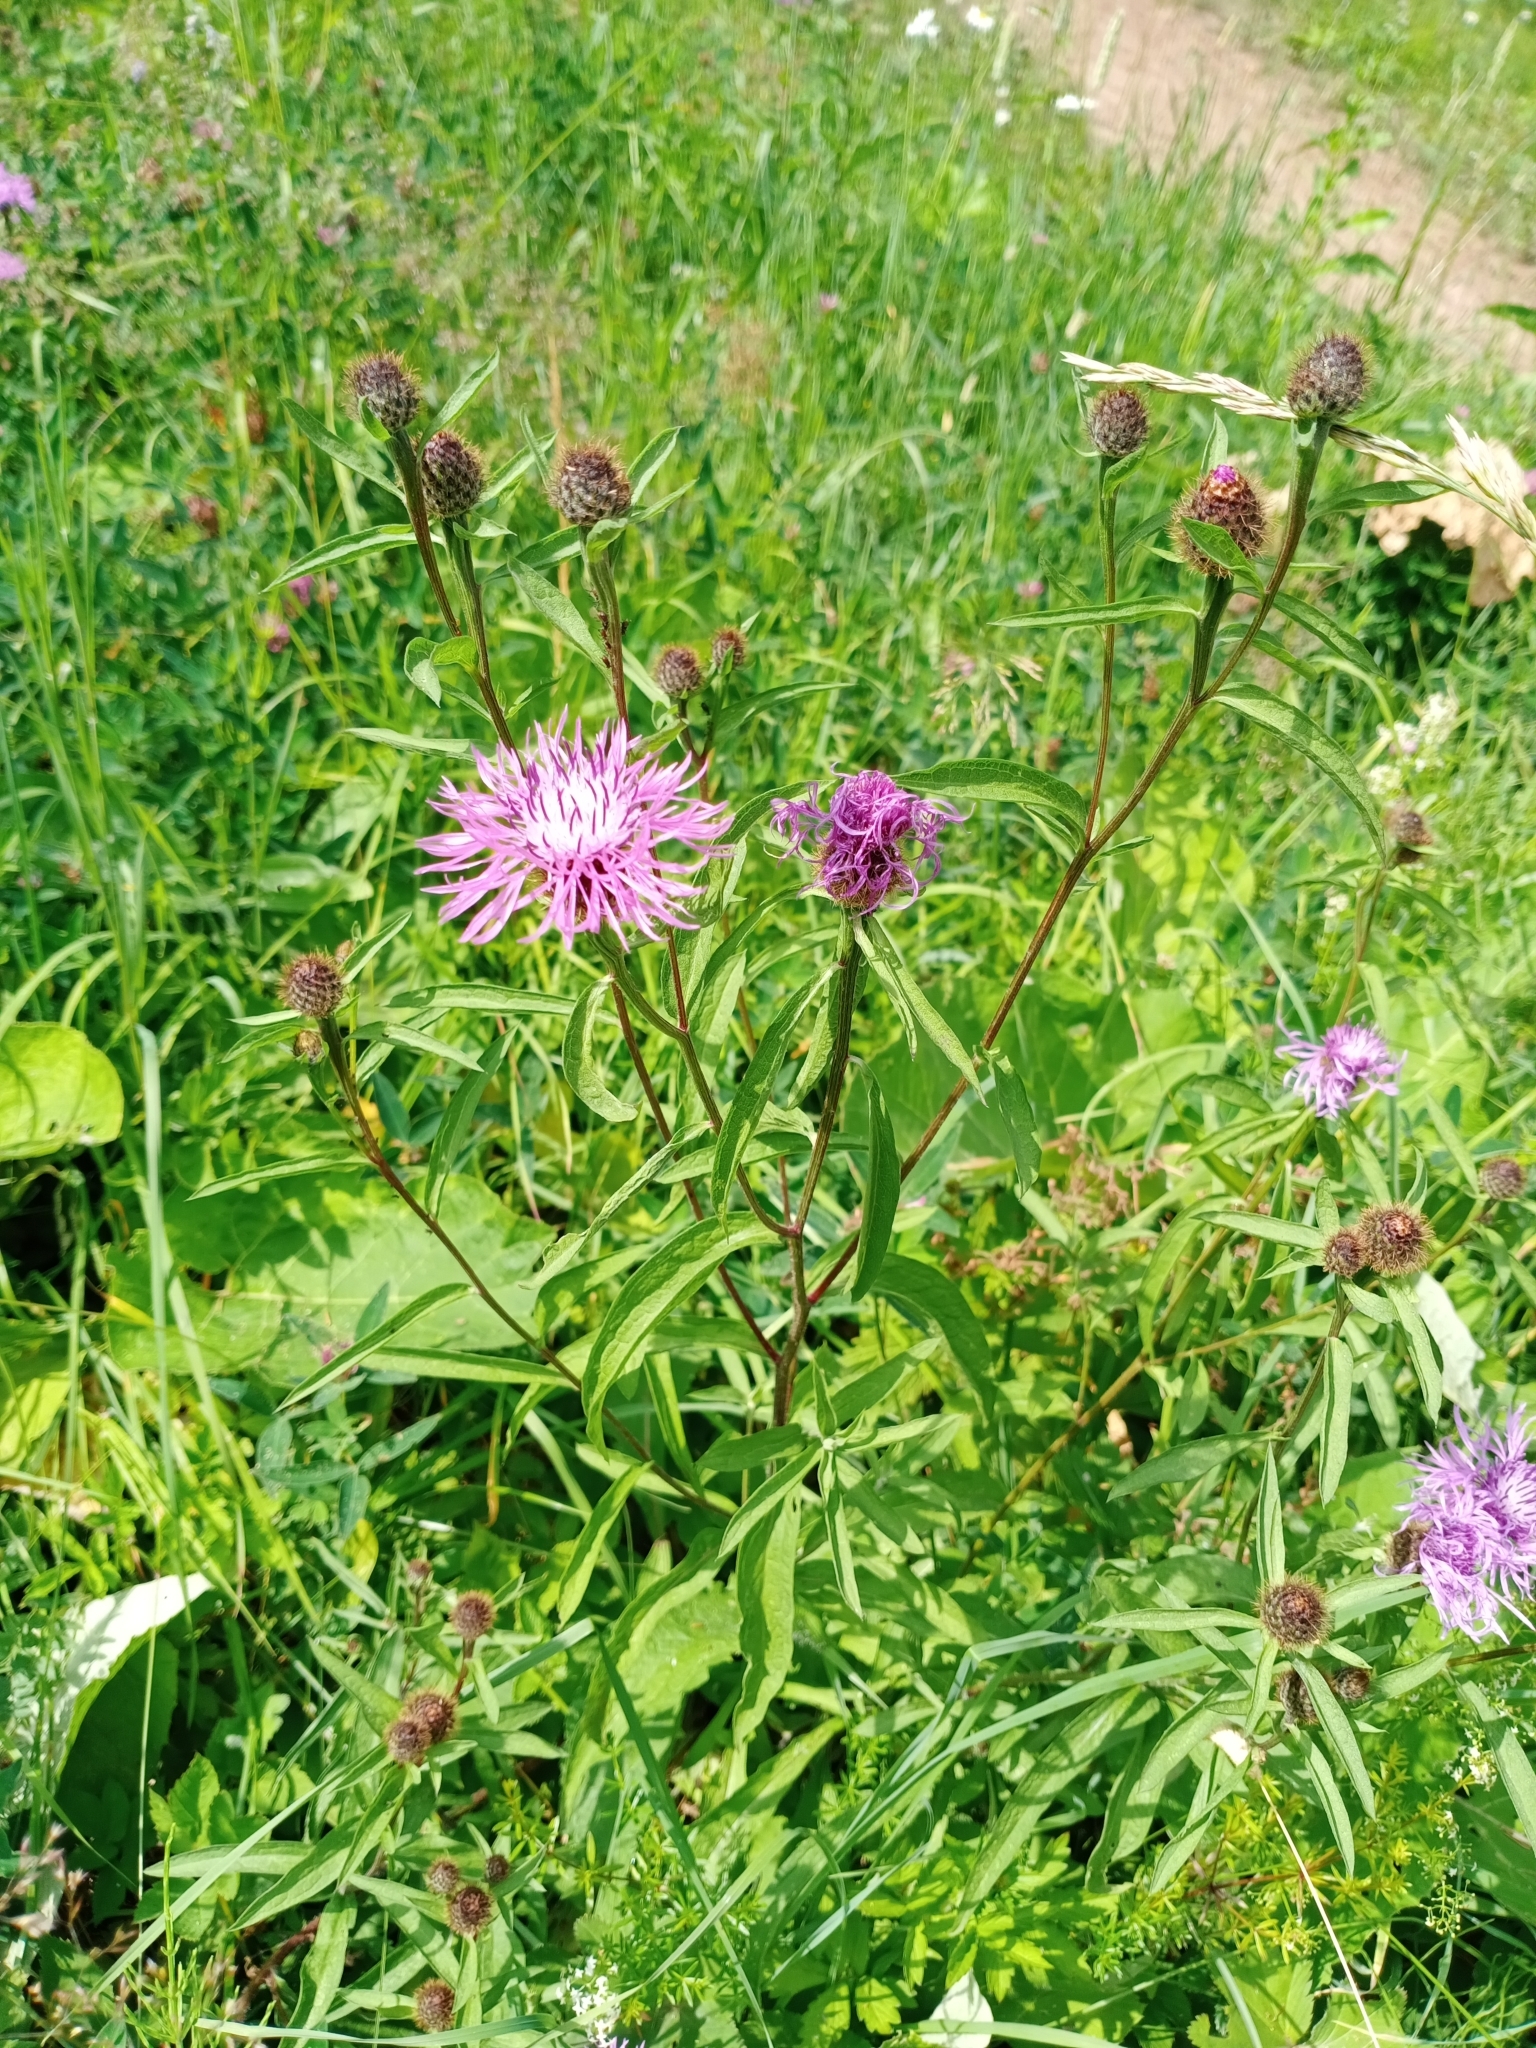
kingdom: Plantae
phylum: Tracheophyta
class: Magnoliopsida
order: Asterales
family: Asteraceae
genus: Centaurea
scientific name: Centaurea phrygia
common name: Wig knapweed
